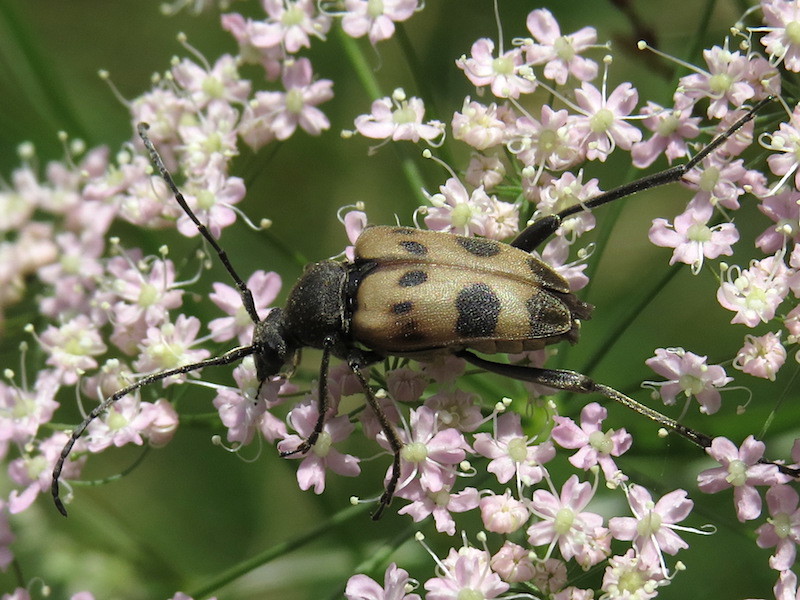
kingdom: Animalia
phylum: Arthropoda
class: Insecta
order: Coleoptera
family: Cerambycidae
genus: Pachytodes
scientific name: Pachytodes cerambyciformis
